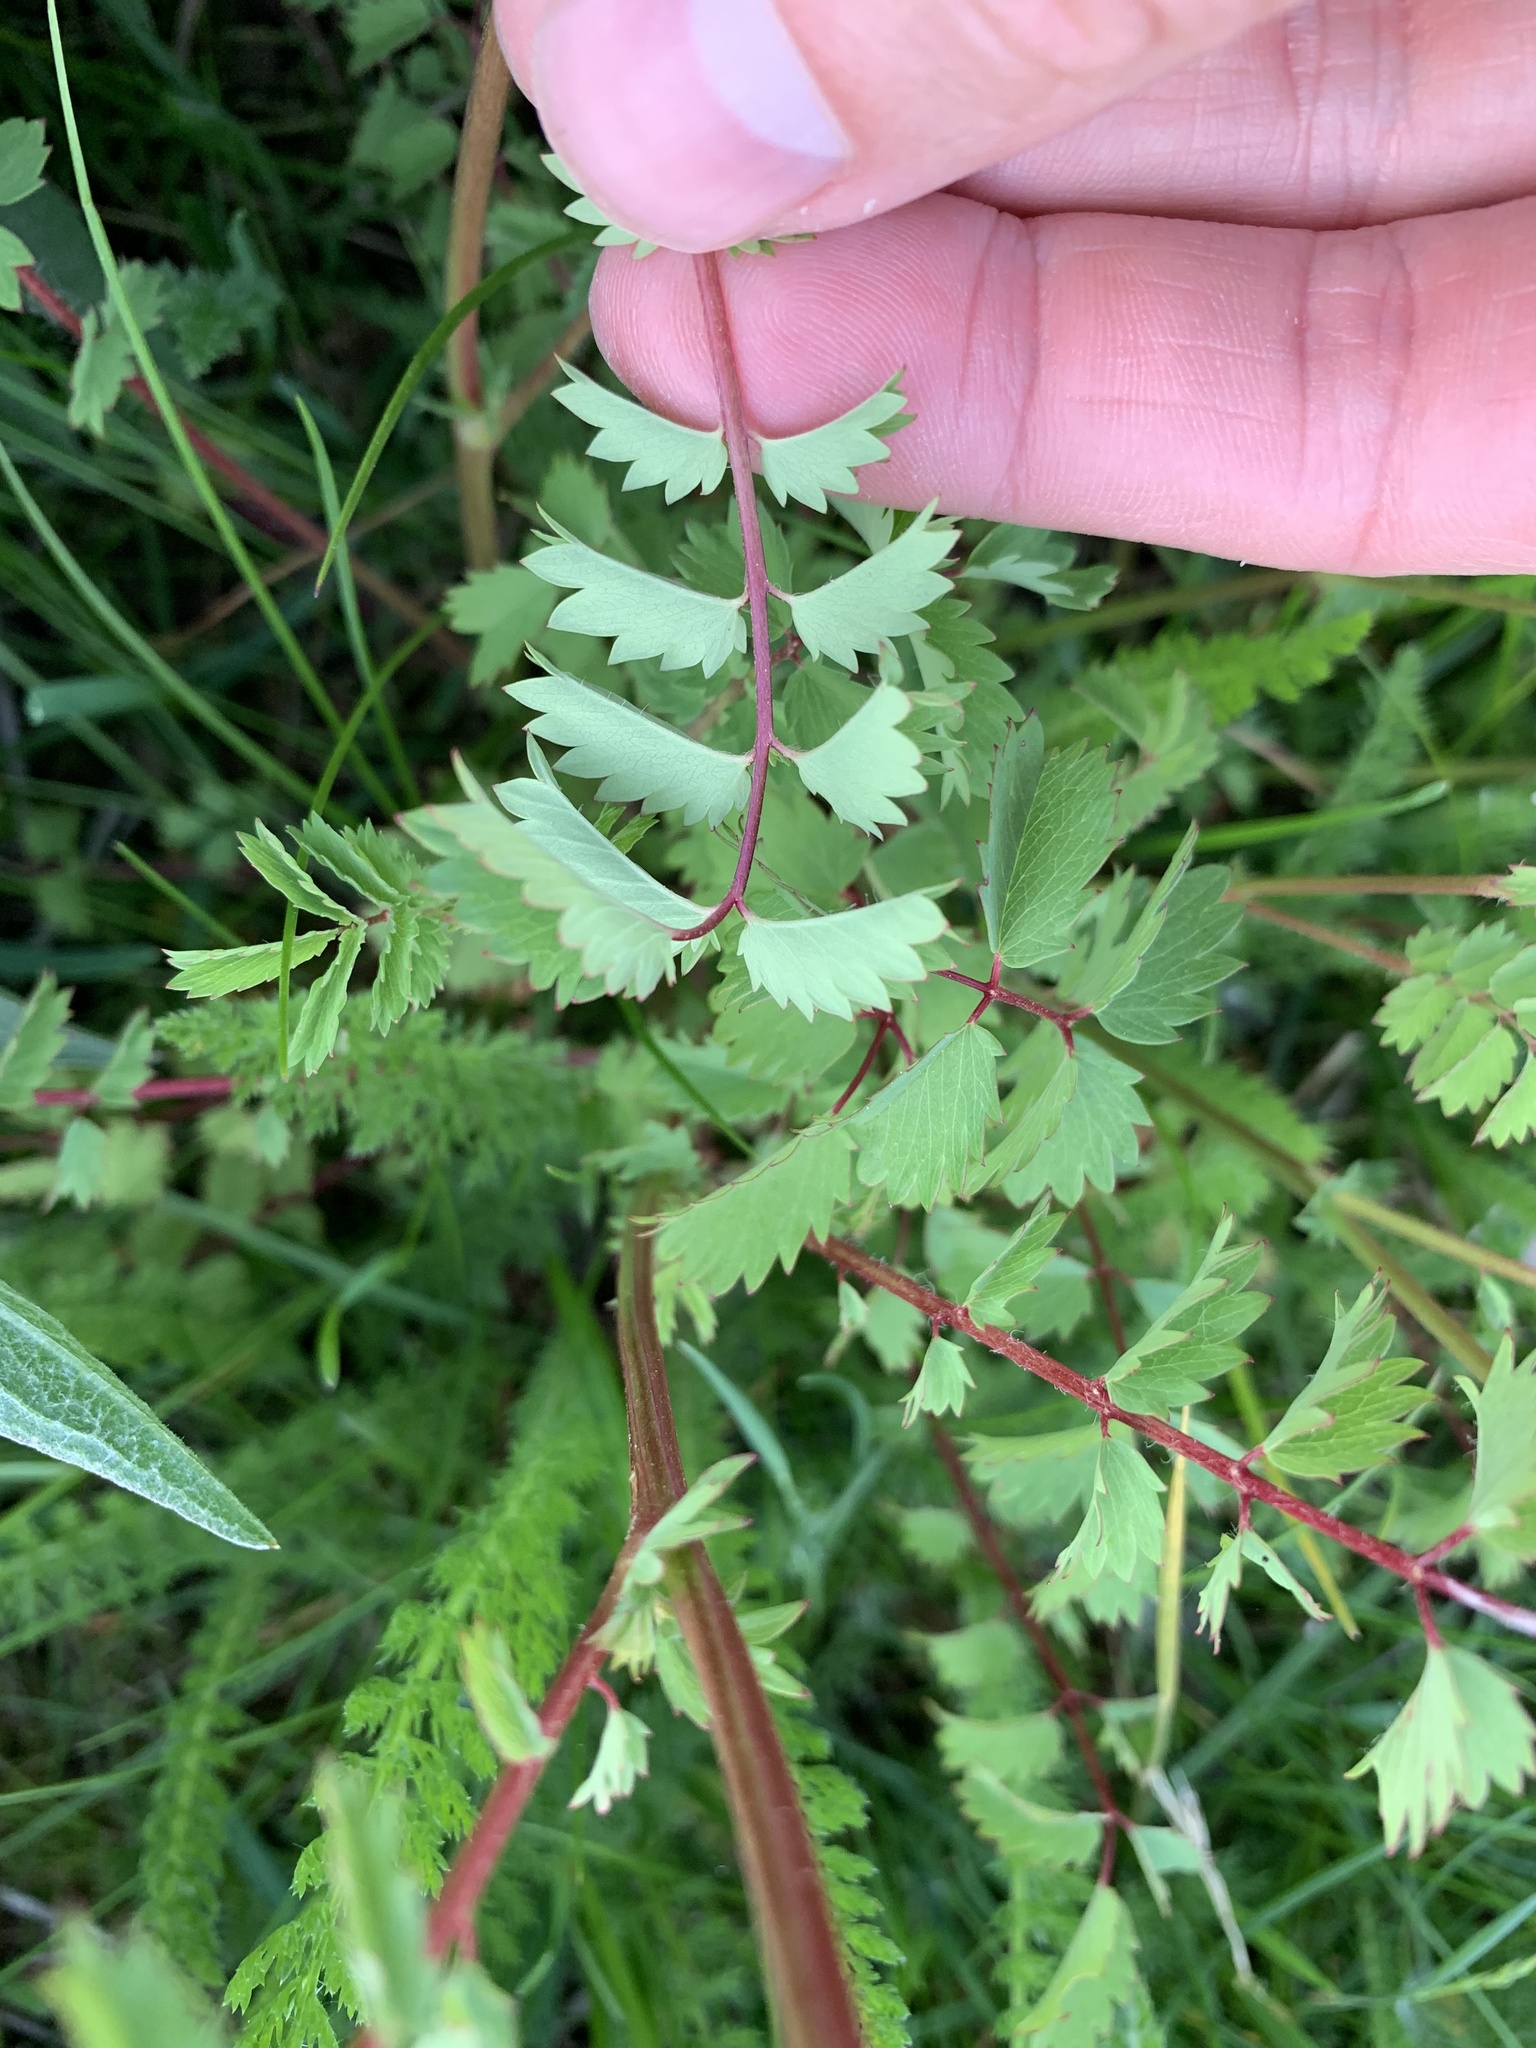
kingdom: Plantae
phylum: Tracheophyta
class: Magnoliopsida
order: Rosales
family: Rosaceae
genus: Poterium
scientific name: Poterium sanguisorba
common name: Salad burnet
